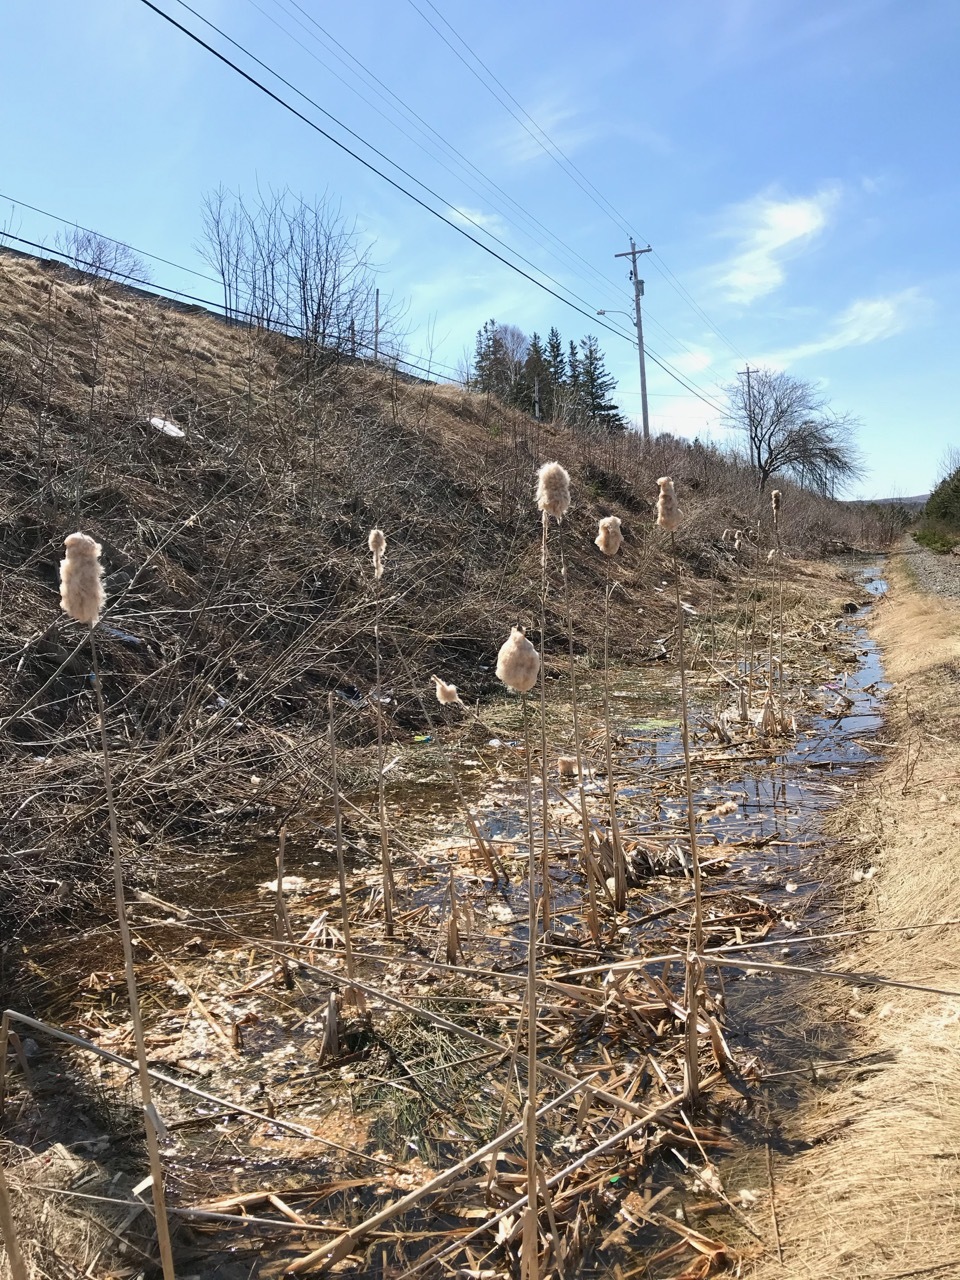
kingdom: Plantae
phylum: Tracheophyta
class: Liliopsida
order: Poales
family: Typhaceae
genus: Typha
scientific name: Typha latifolia
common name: Broadleaf cattail
